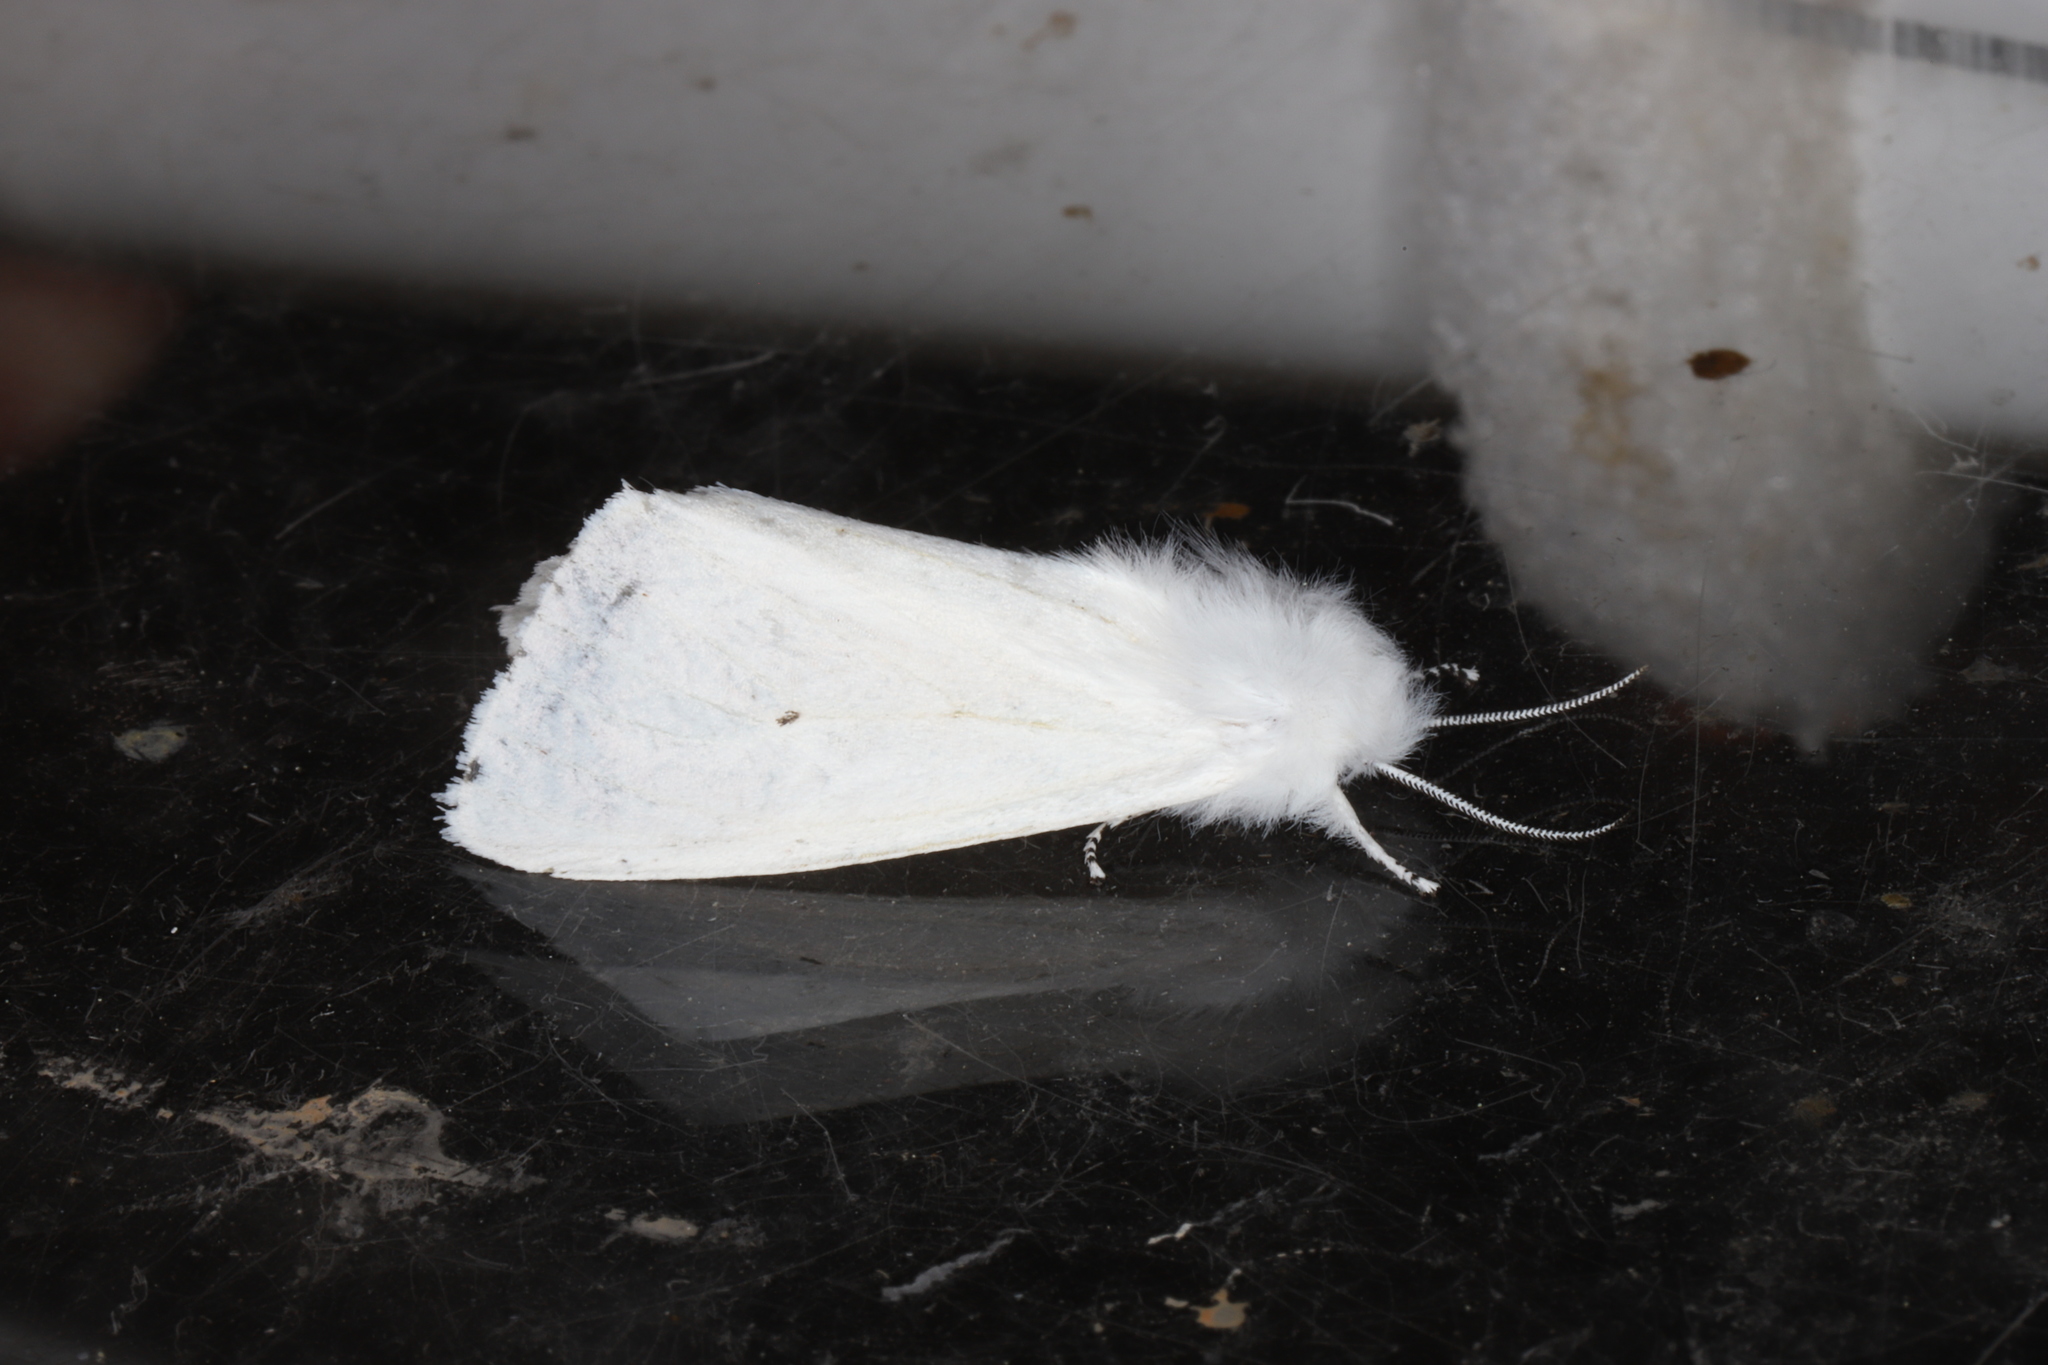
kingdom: Animalia
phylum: Arthropoda
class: Insecta
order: Lepidoptera
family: Erebidae
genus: Spilosoma
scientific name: Spilosoma virginica
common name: Virginia tiger moth
